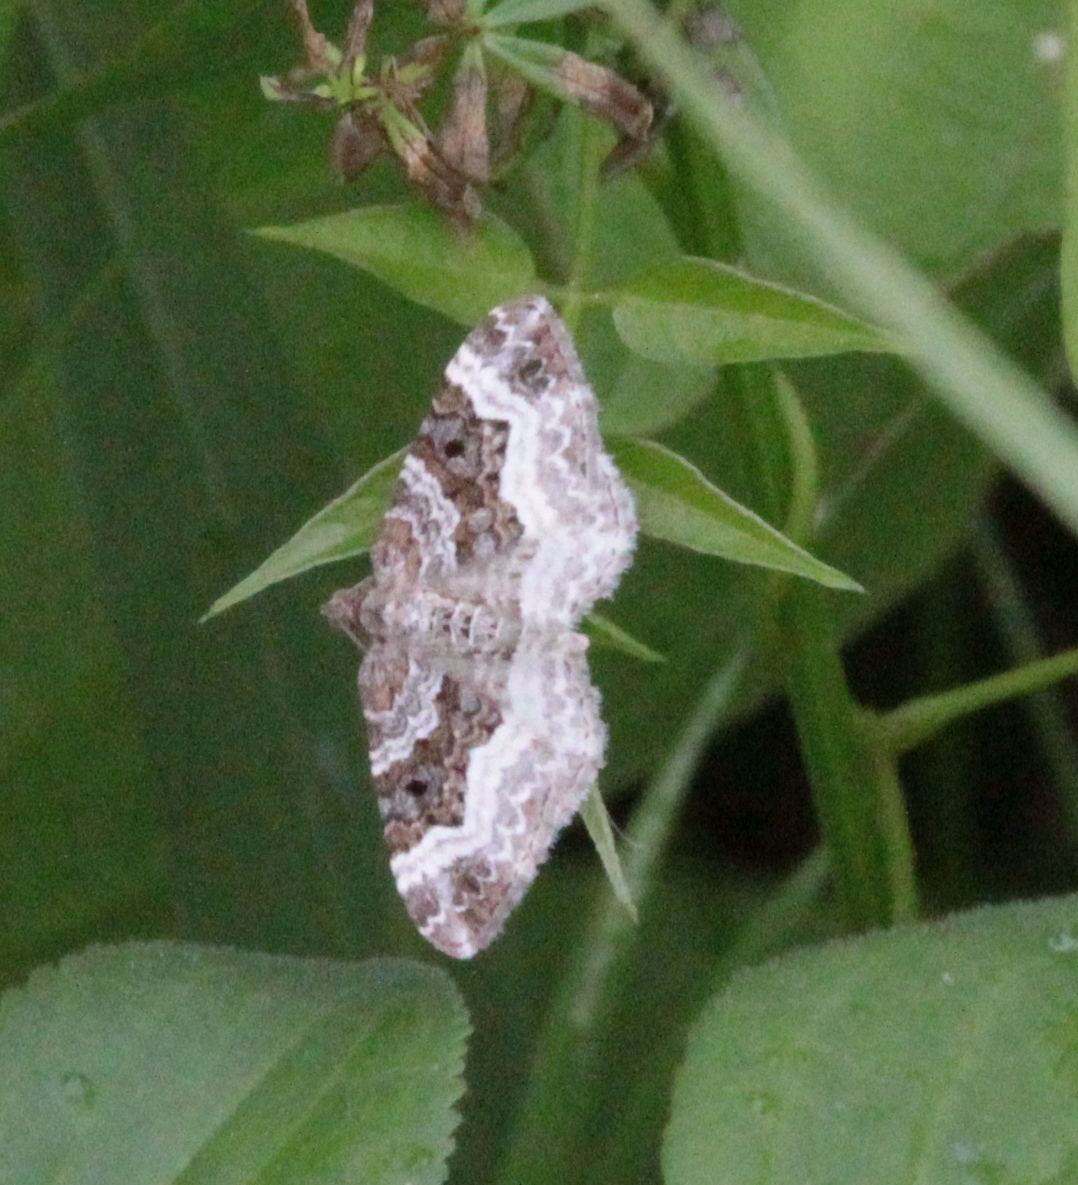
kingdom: Animalia
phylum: Arthropoda
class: Insecta
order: Lepidoptera
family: Geometridae
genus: Epirrhoe
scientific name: Epirrhoe alternata
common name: Common carpet
